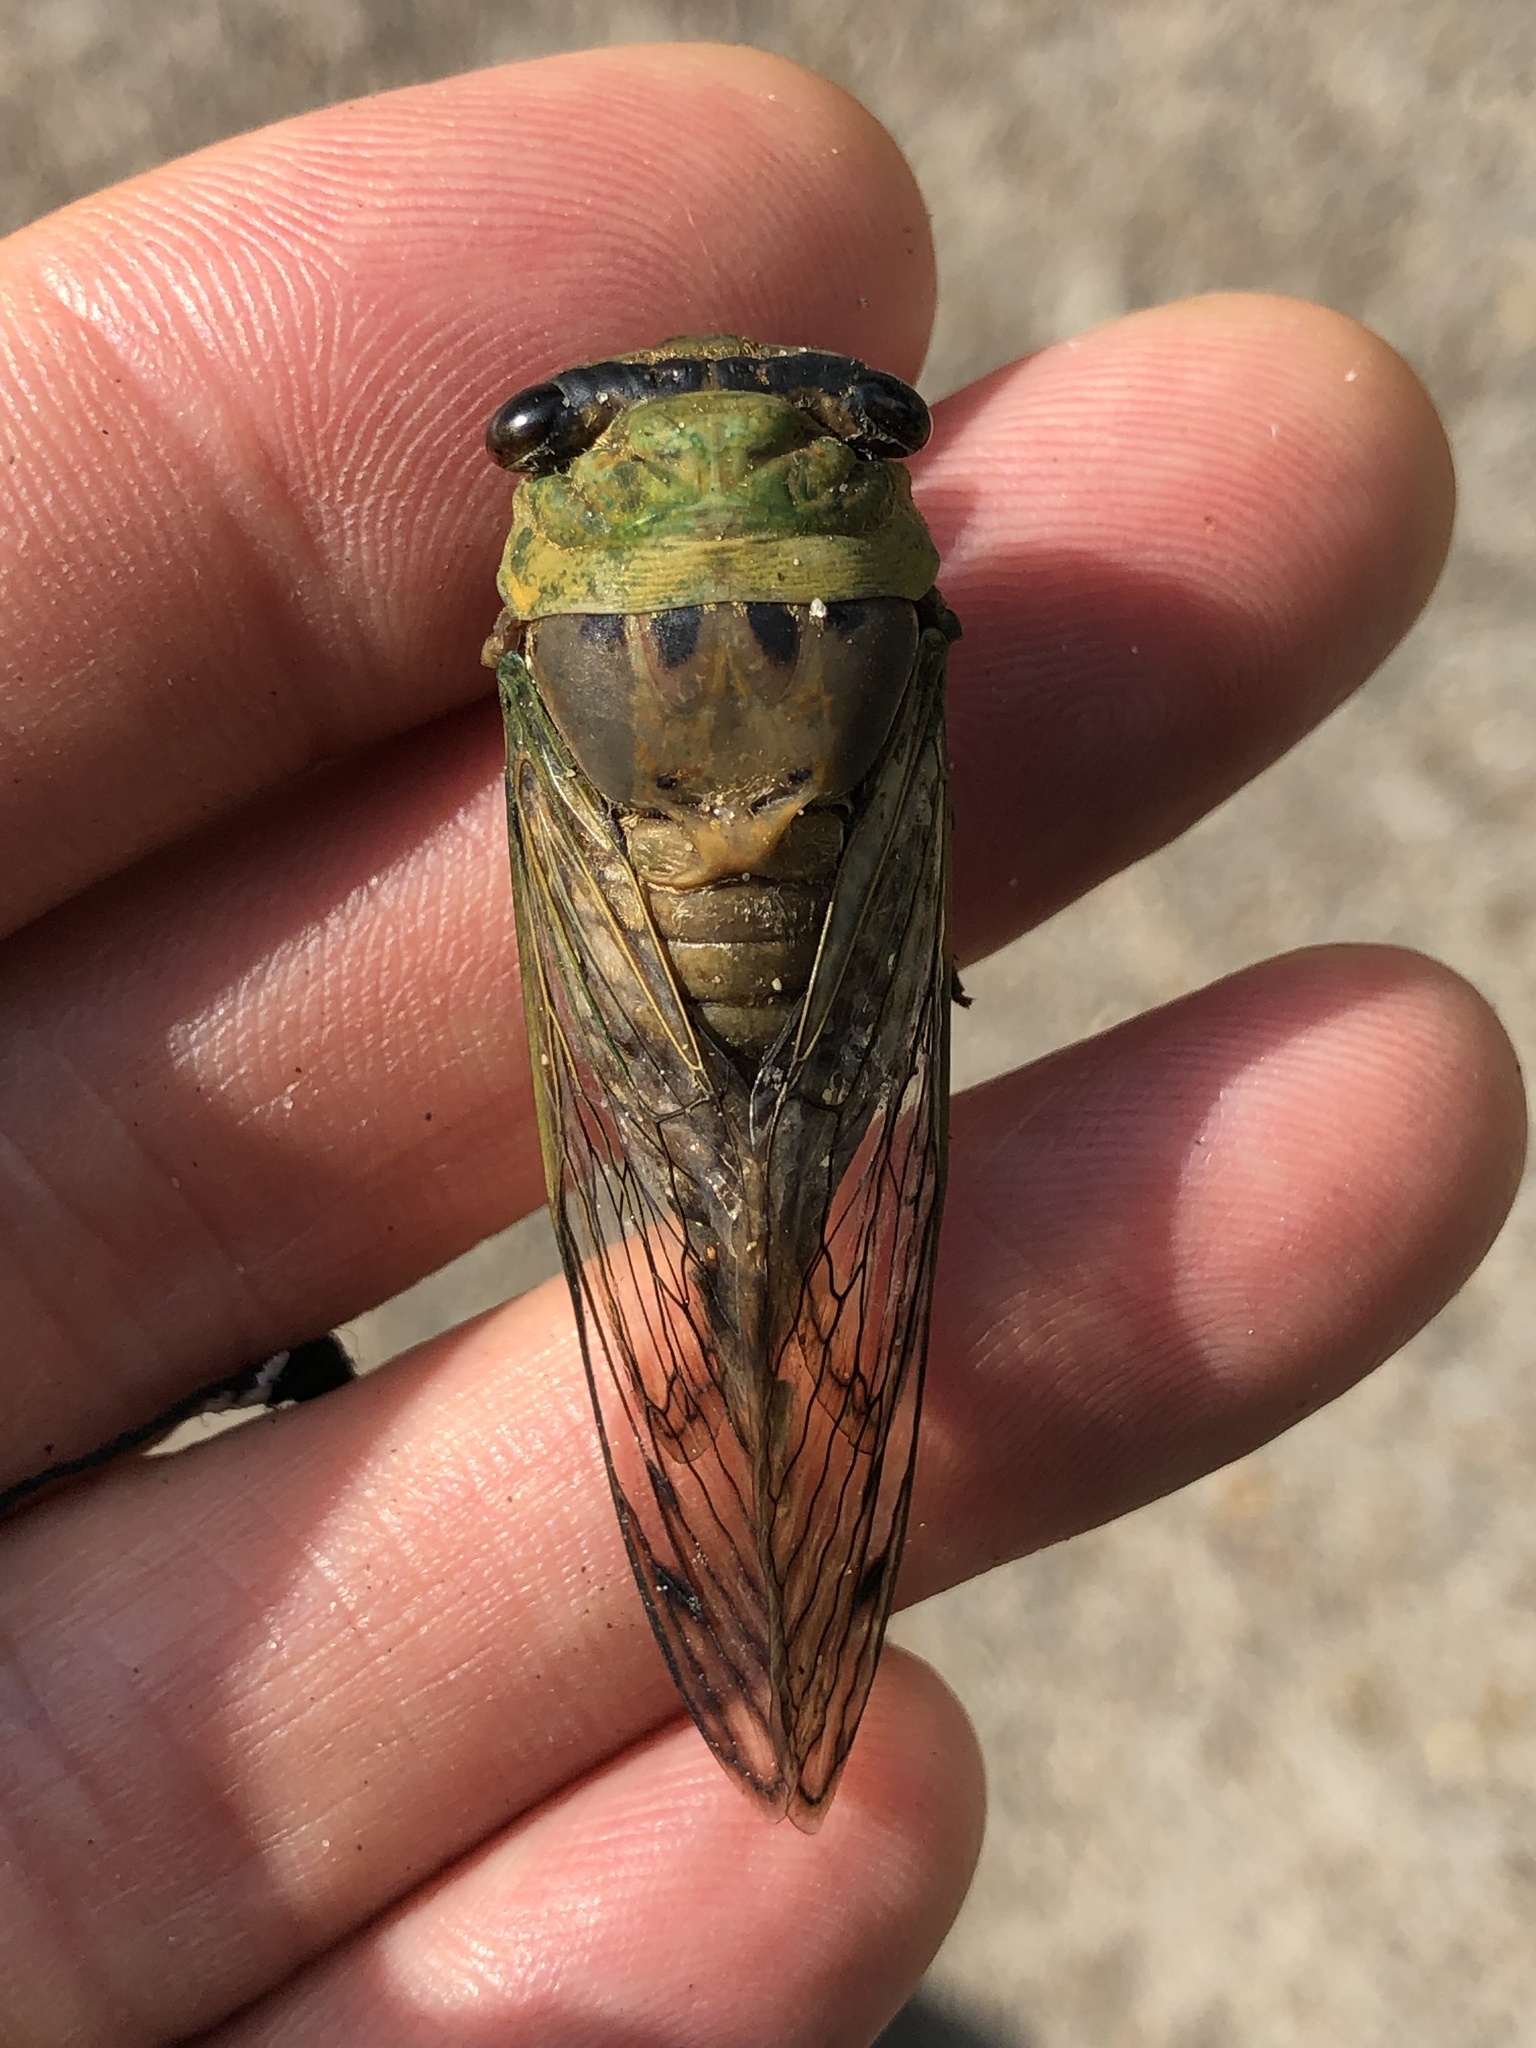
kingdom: Animalia
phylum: Arthropoda
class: Insecta
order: Hemiptera
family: Cicadidae
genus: Neotibicen
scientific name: Neotibicen superbus
